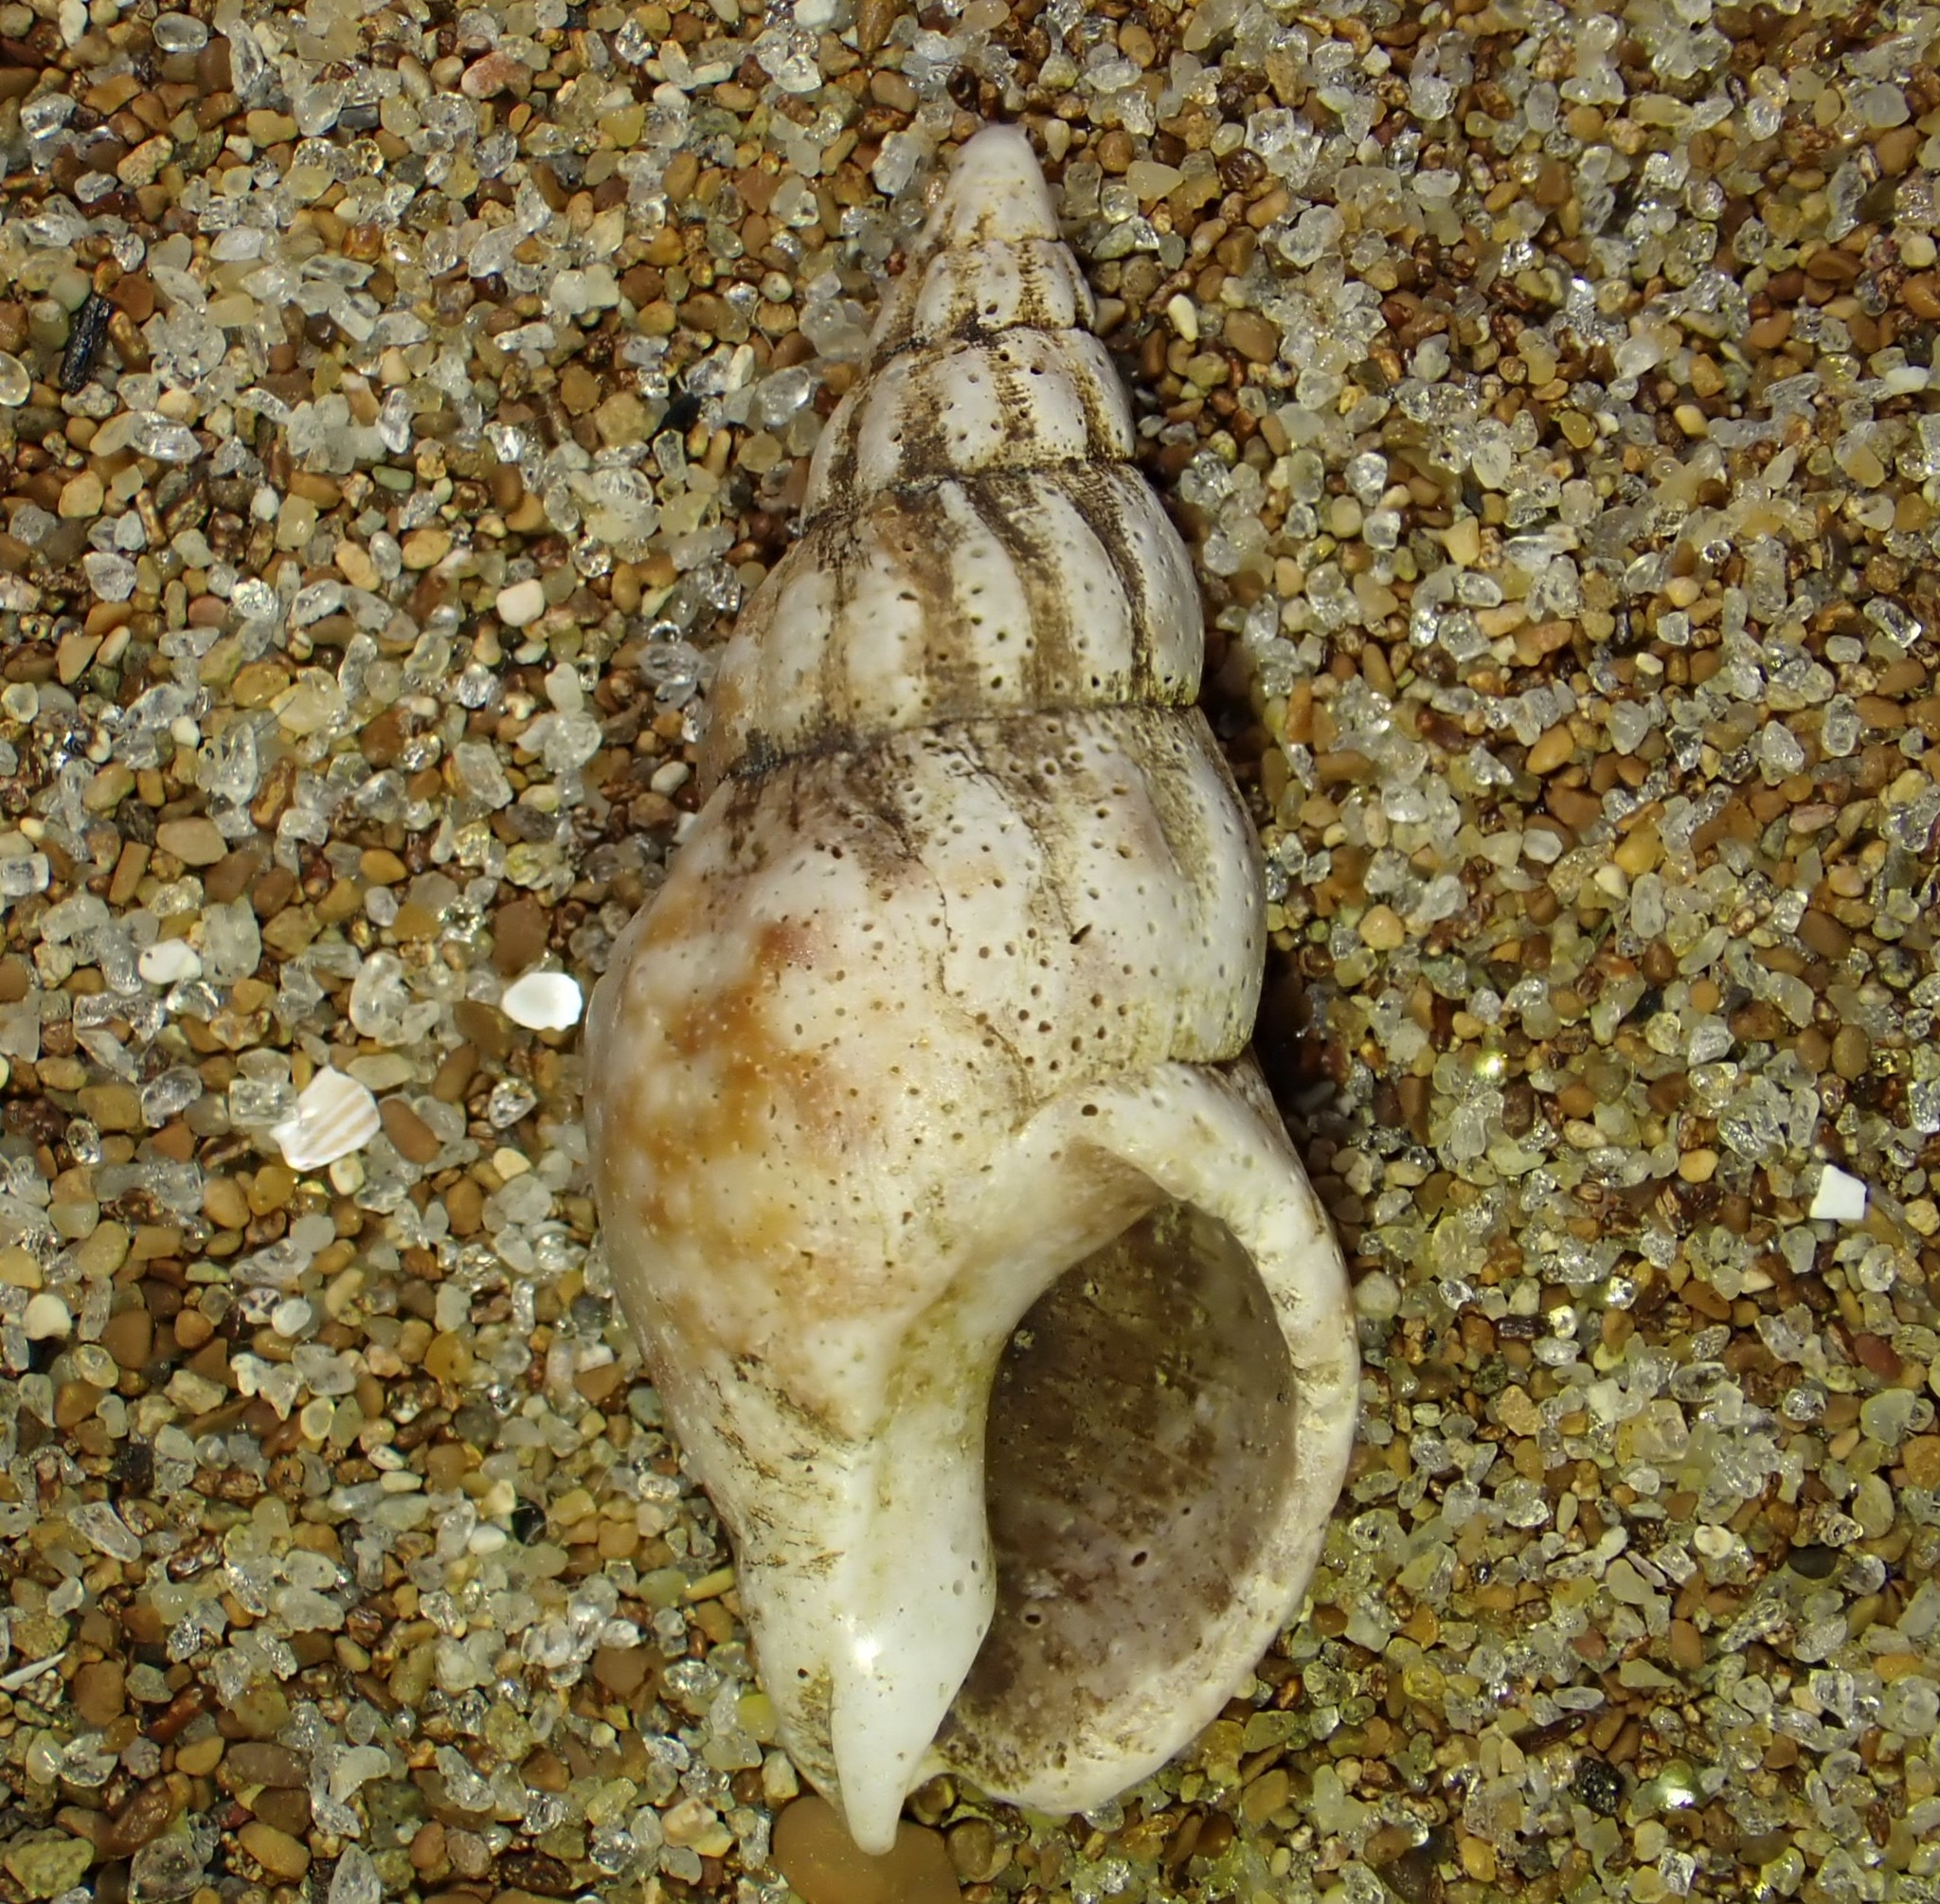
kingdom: Animalia
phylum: Mollusca
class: Gastropoda
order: Neogastropoda
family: Cominellidae
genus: Cominella
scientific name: Cominella accuminata
